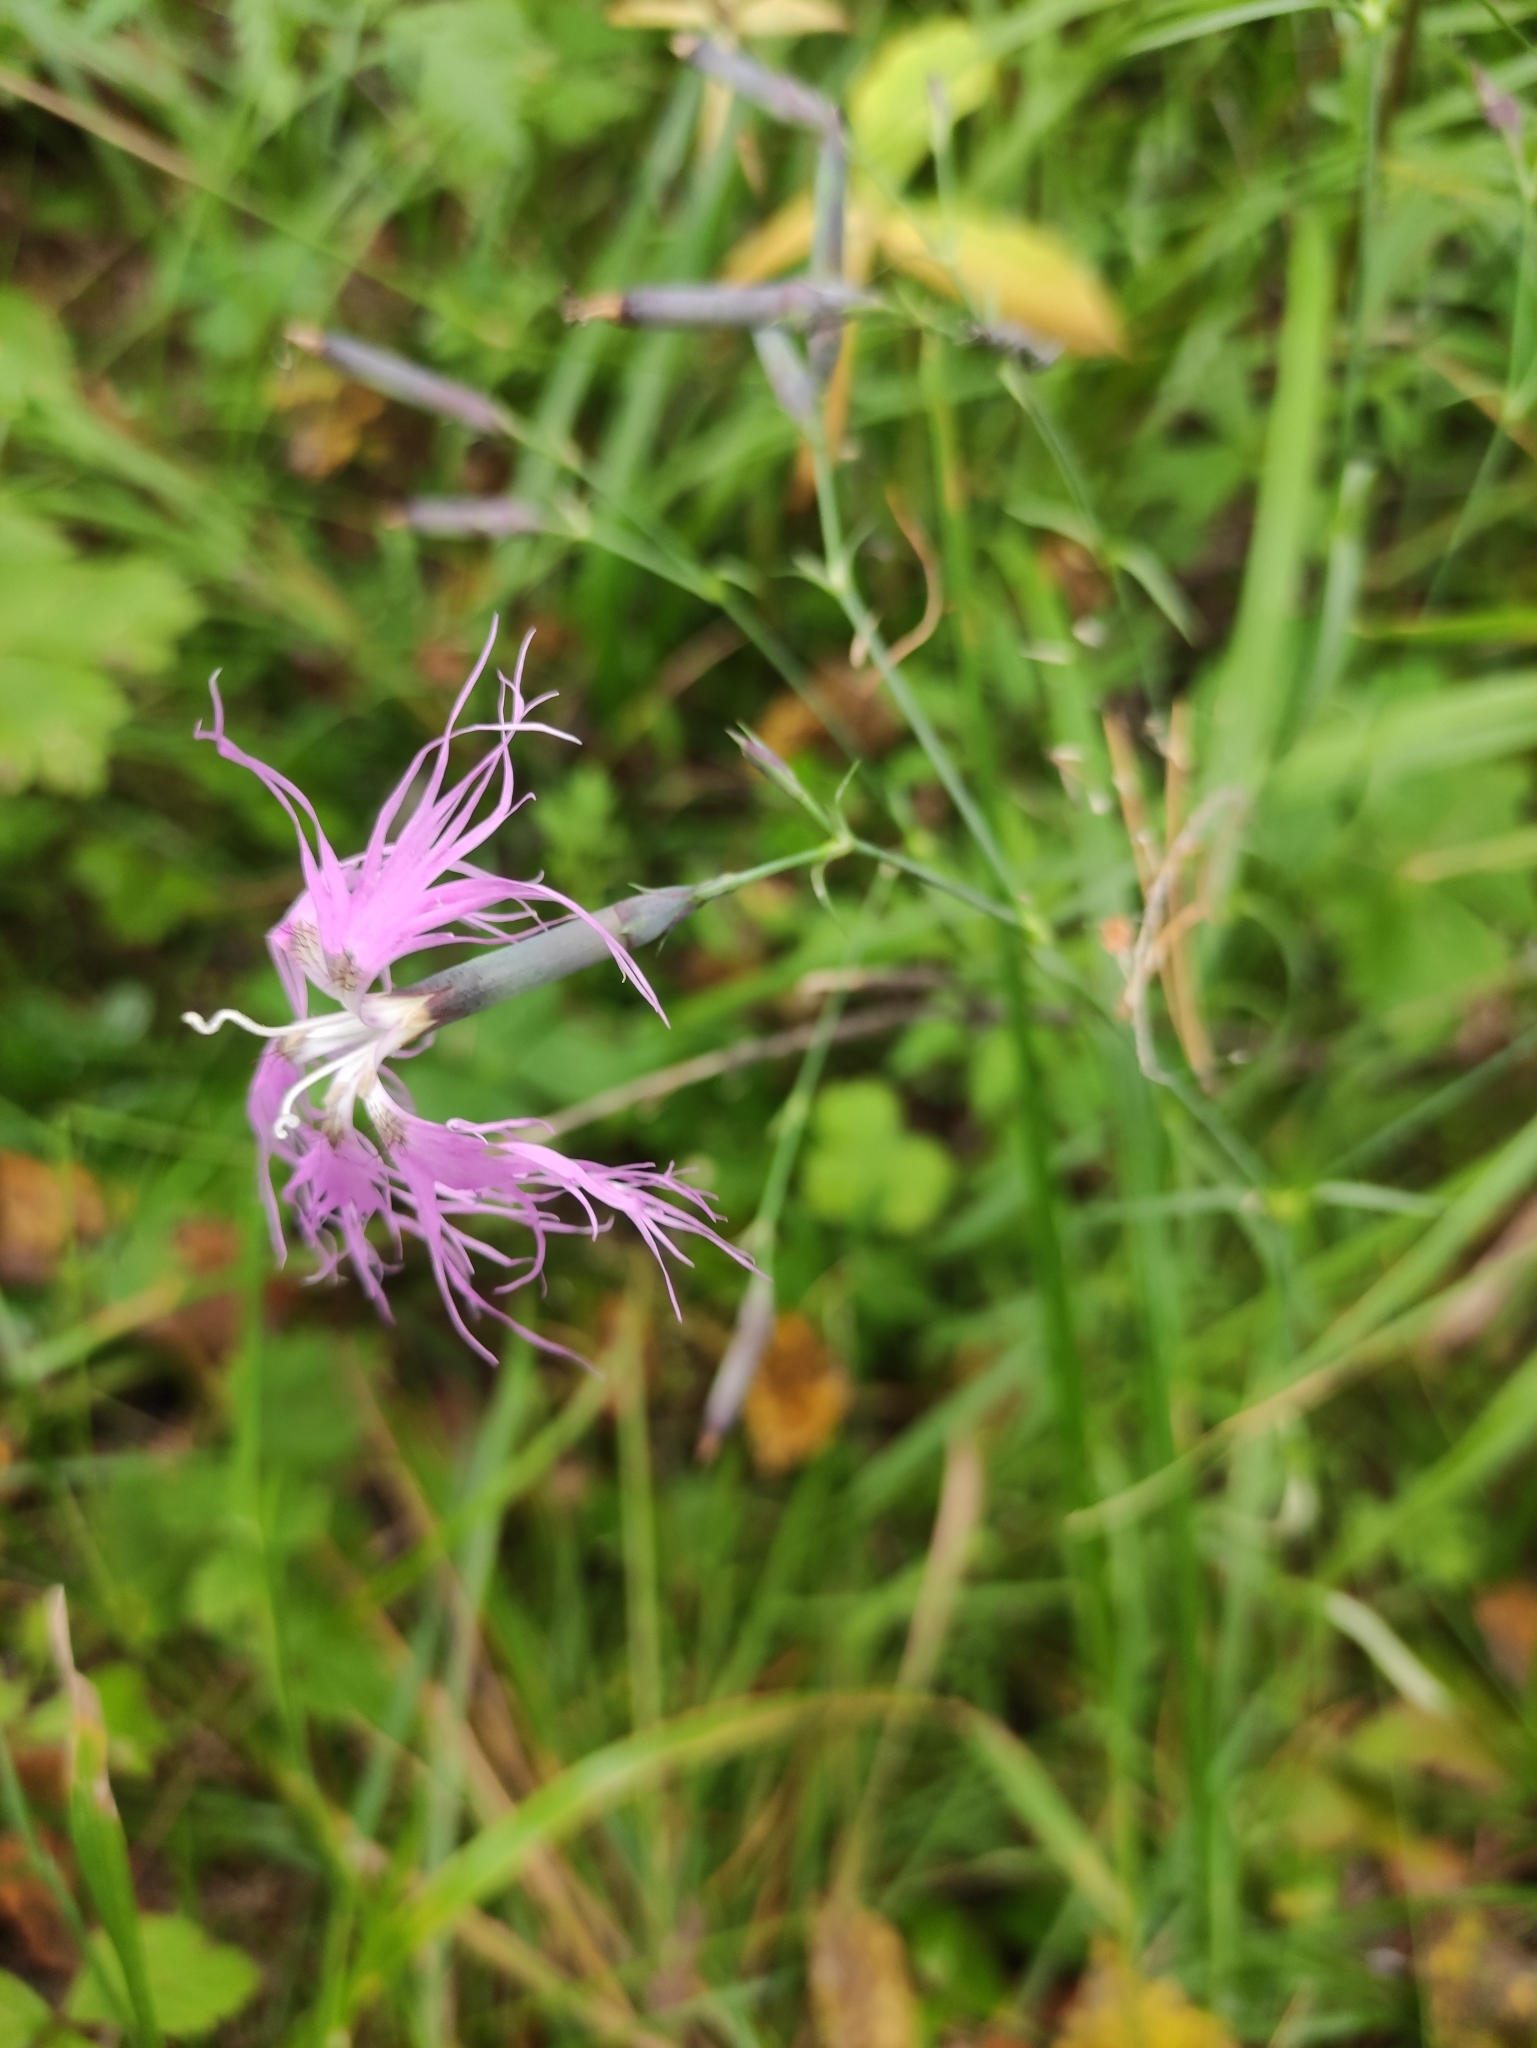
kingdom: Plantae
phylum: Tracheophyta
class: Magnoliopsida
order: Caryophyllales
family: Caryophyllaceae
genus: Dianthus
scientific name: Dianthus superbus
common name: Fringed pink
